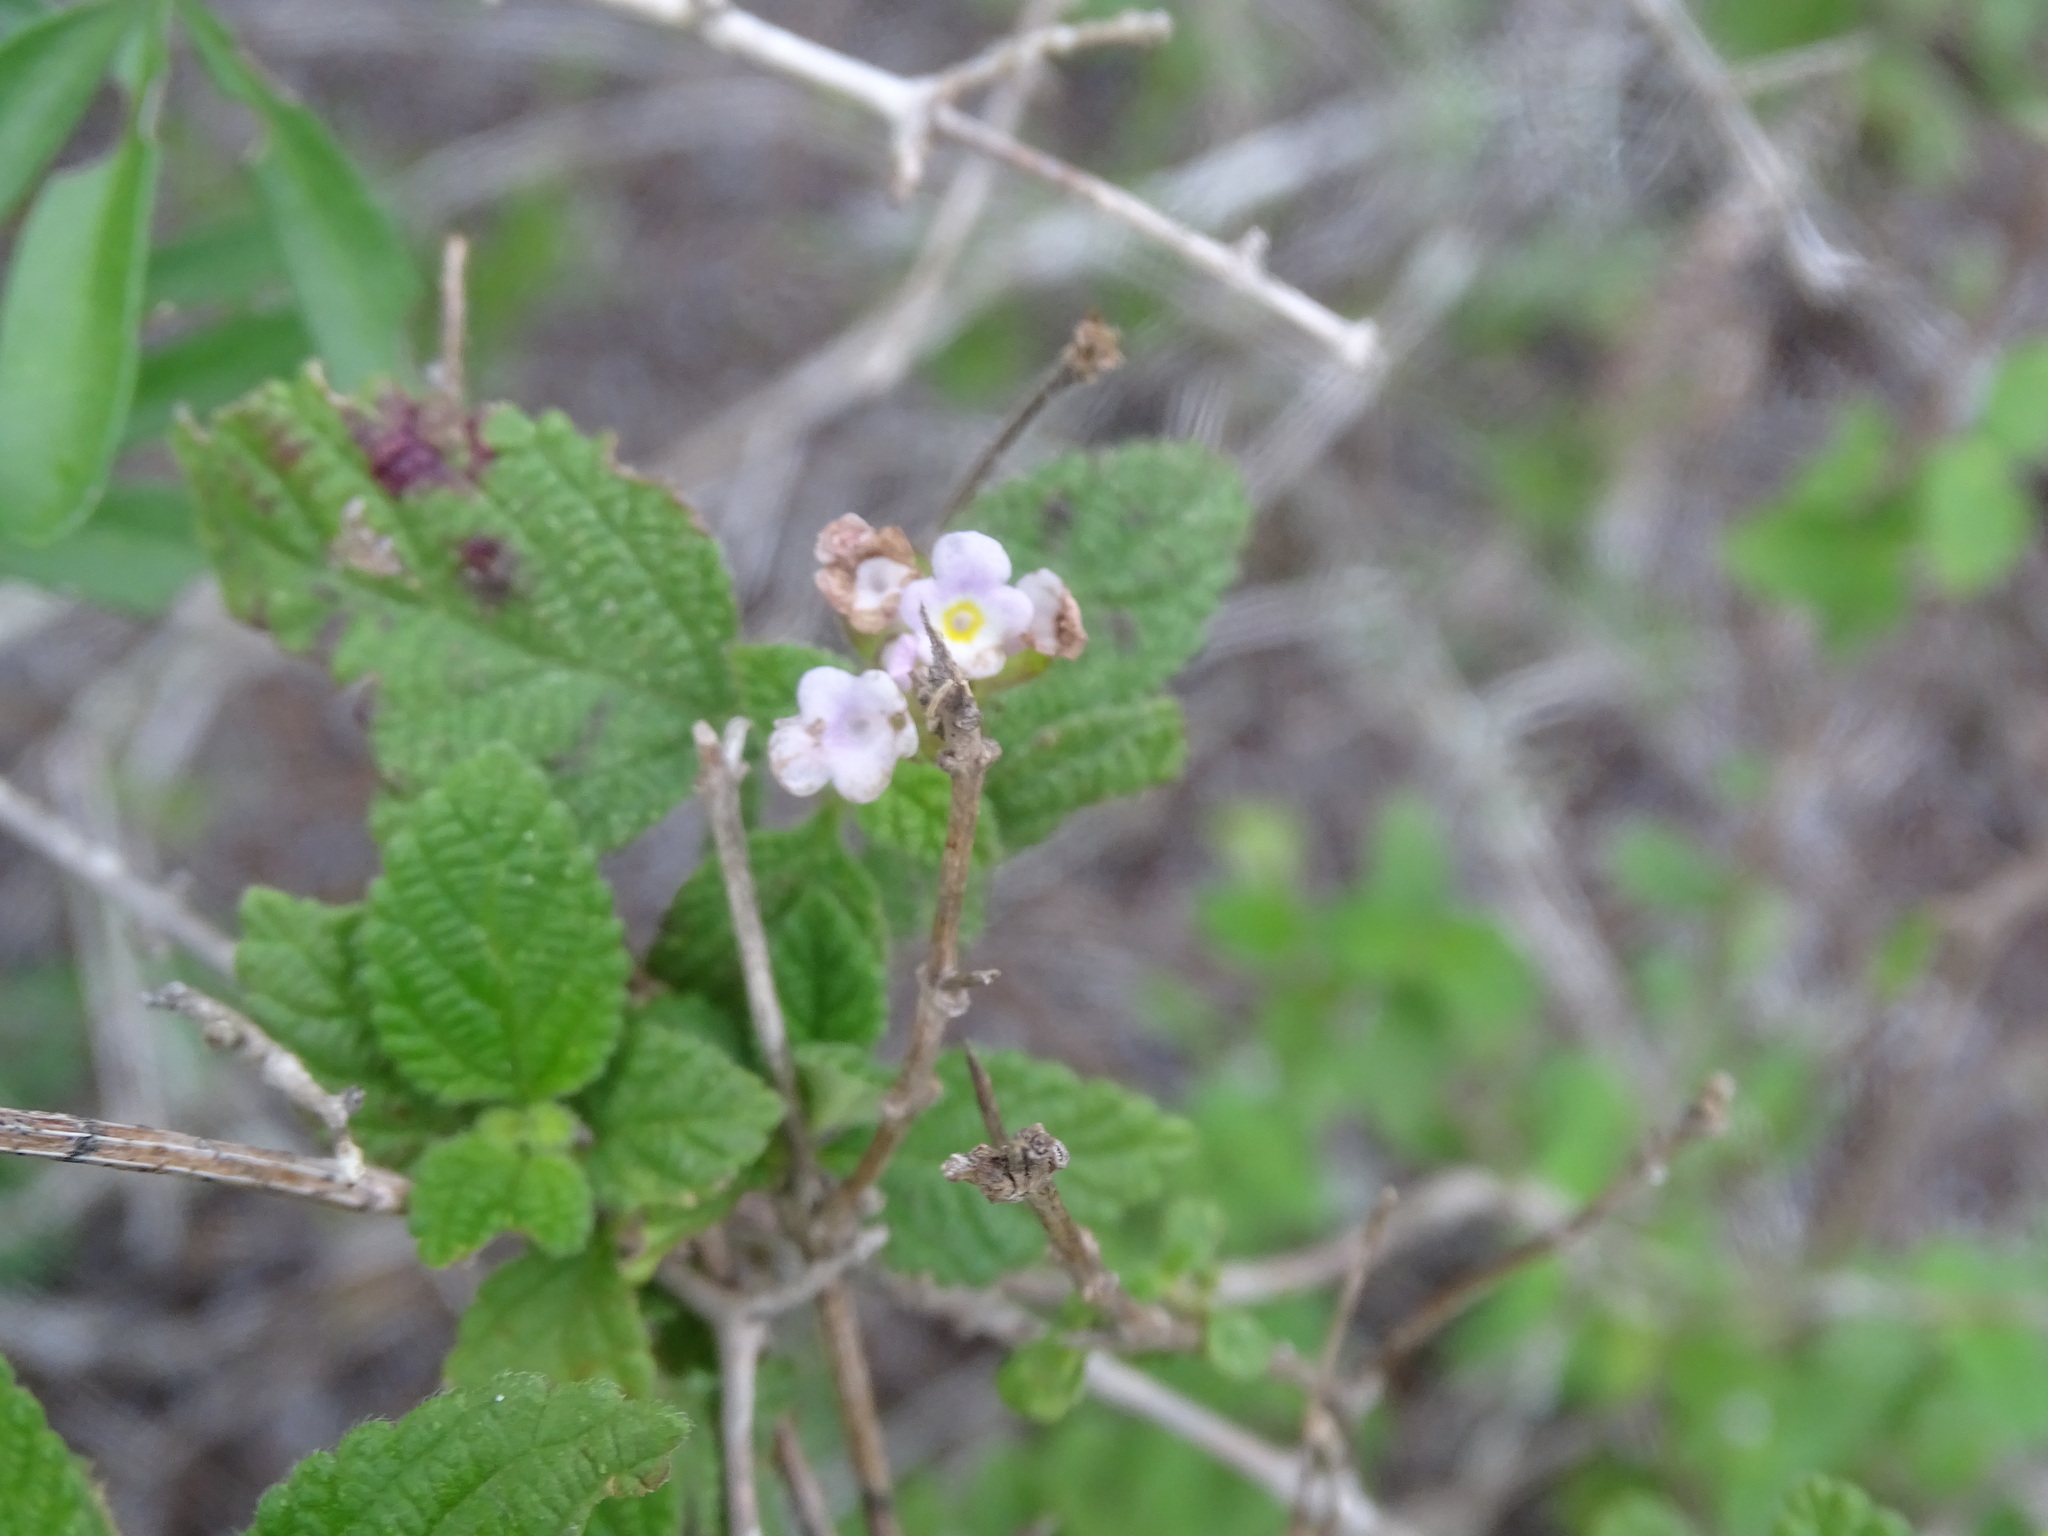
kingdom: Plantae
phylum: Tracheophyta
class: Magnoliopsida
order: Lamiales
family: Verbenaceae
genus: Lantana
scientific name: Lantana velutina
